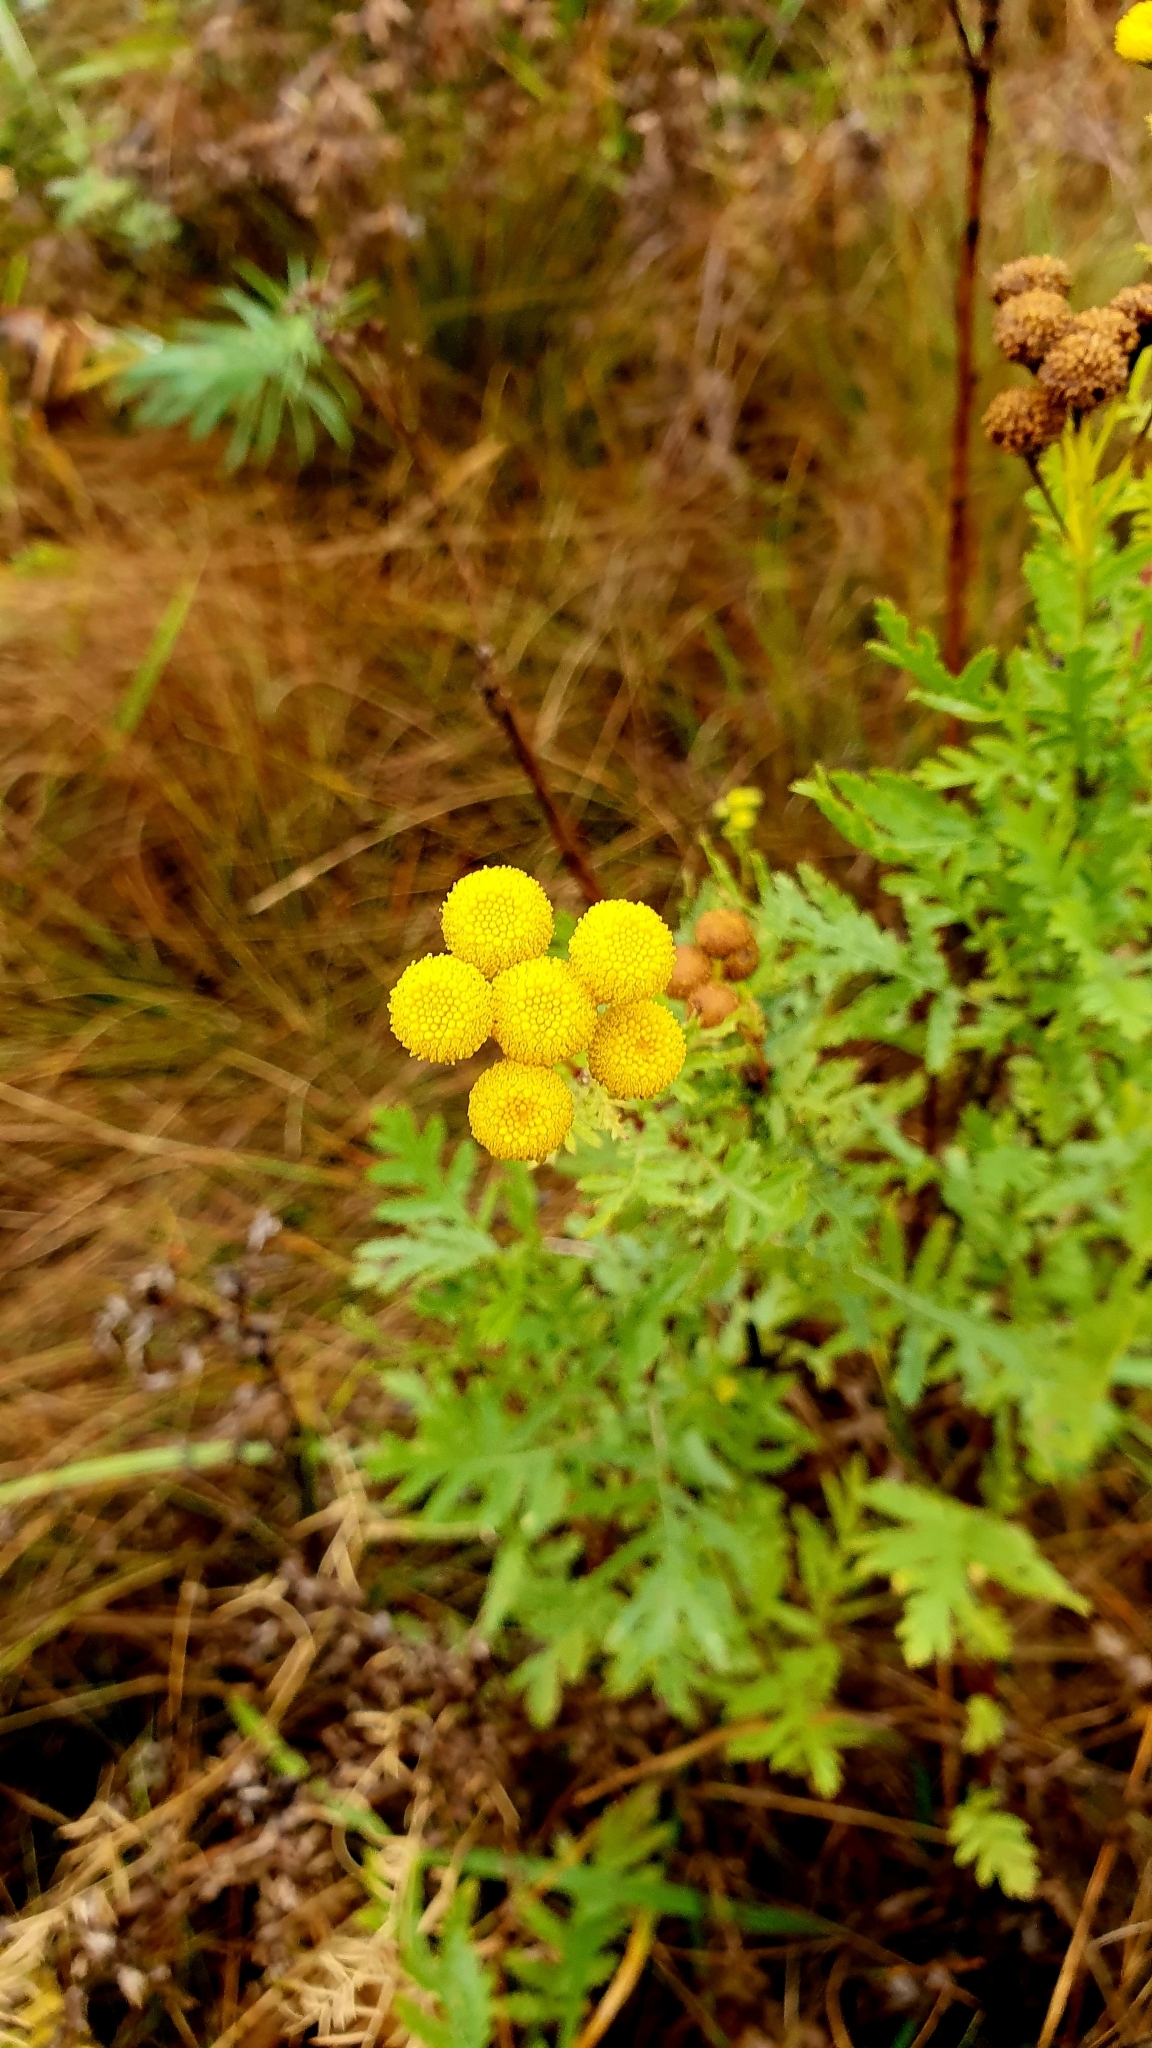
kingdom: Plantae
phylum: Tracheophyta
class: Magnoliopsida
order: Asterales
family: Asteraceae
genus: Tanacetum
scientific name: Tanacetum vulgare
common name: Common tansy
